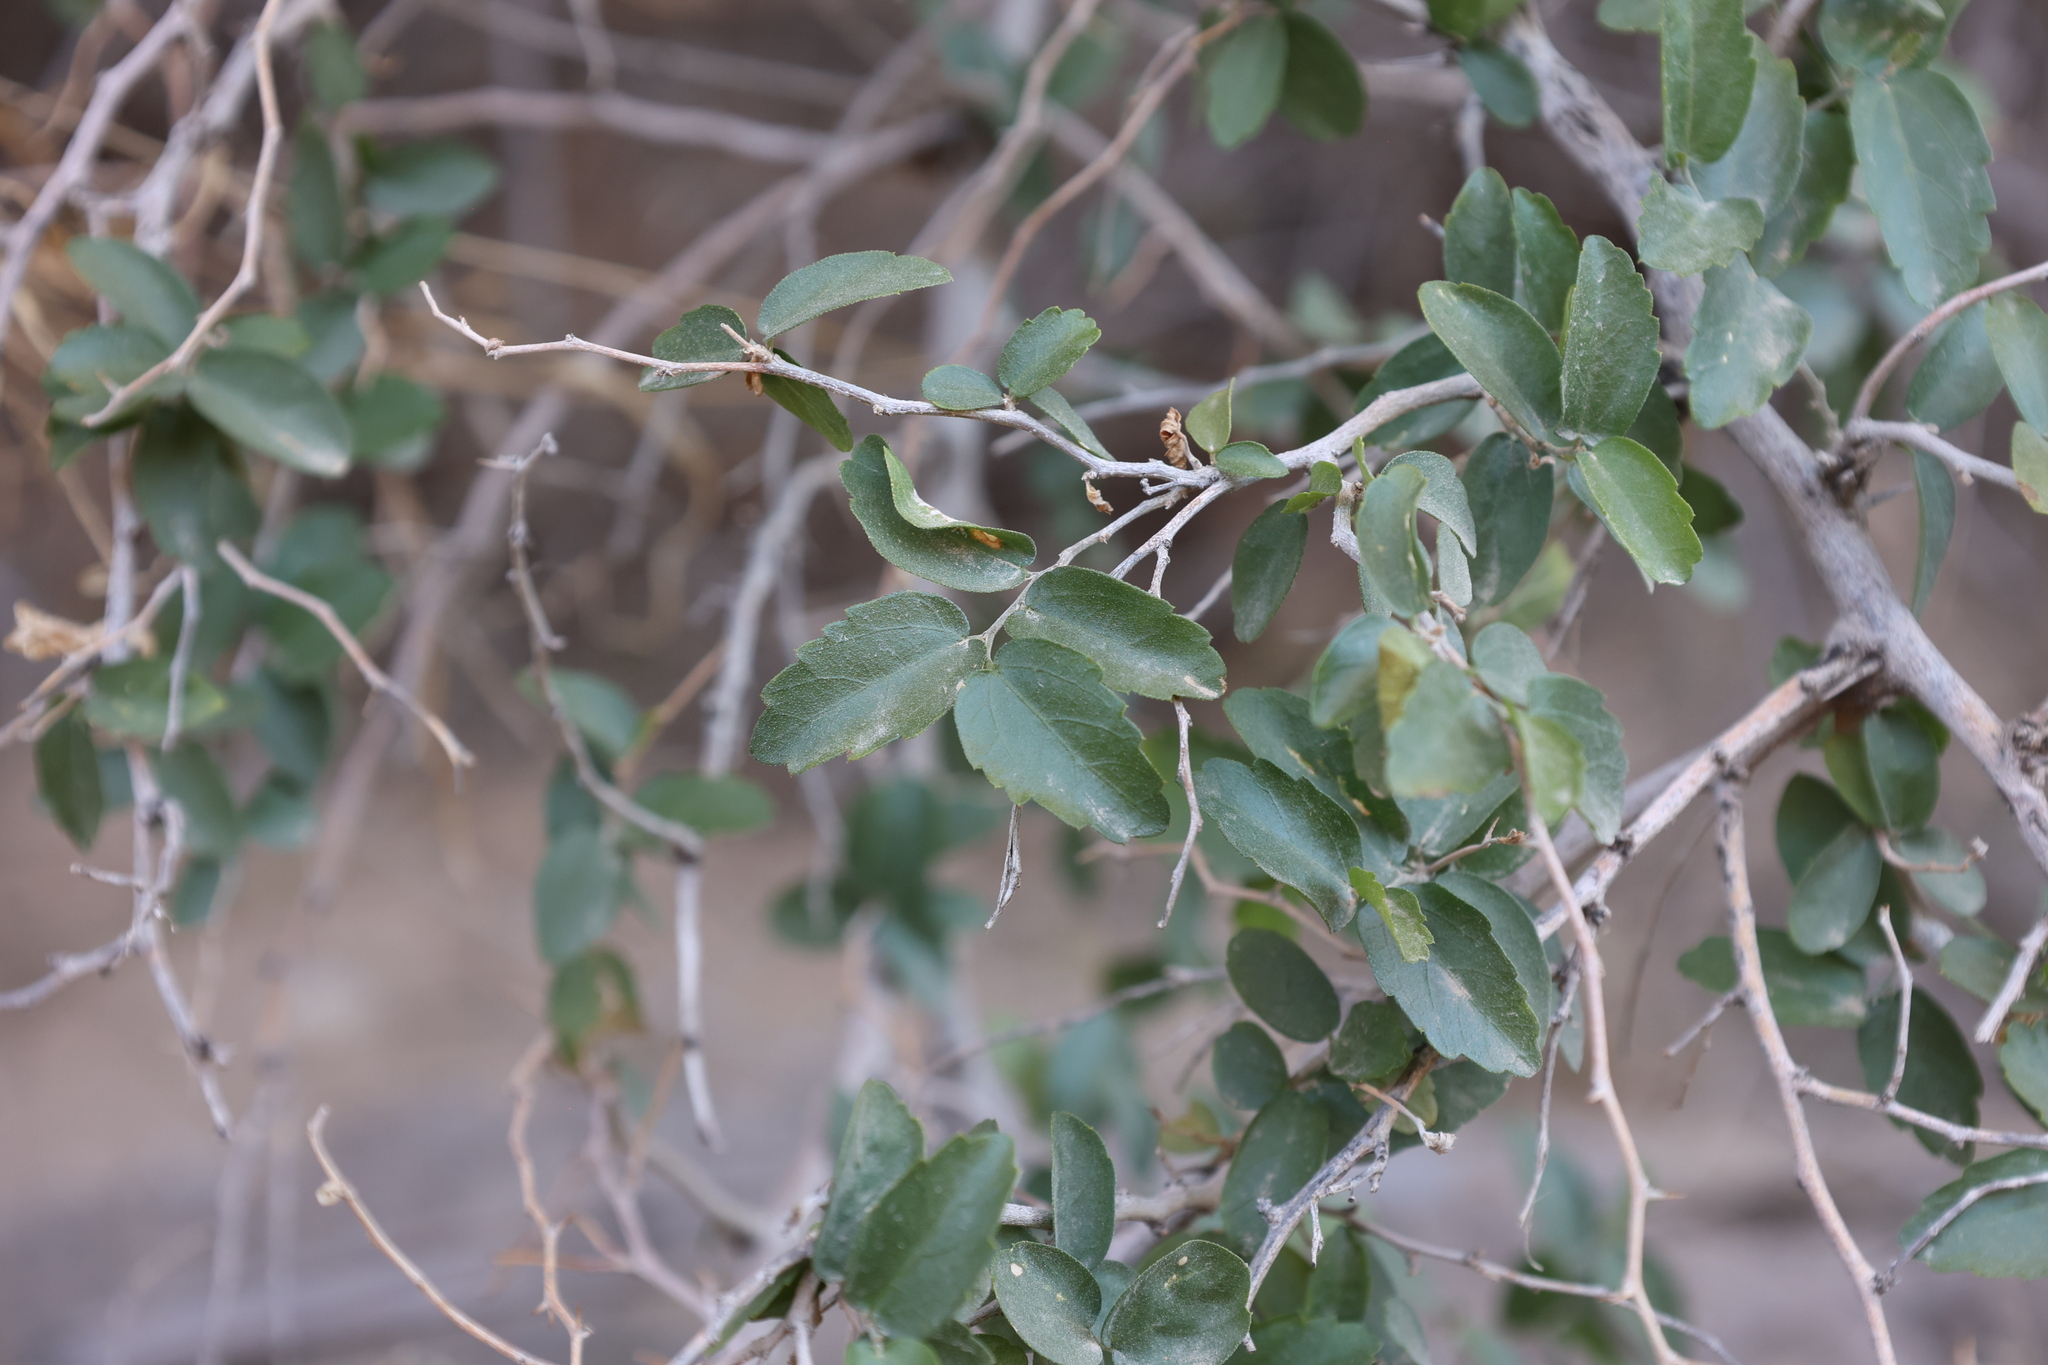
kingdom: Plantae
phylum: Tracheophyta
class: Magnoliopsida
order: Rosales
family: Cannabaceae
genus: Celtis
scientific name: Celtis pallida
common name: Desert hackberry
